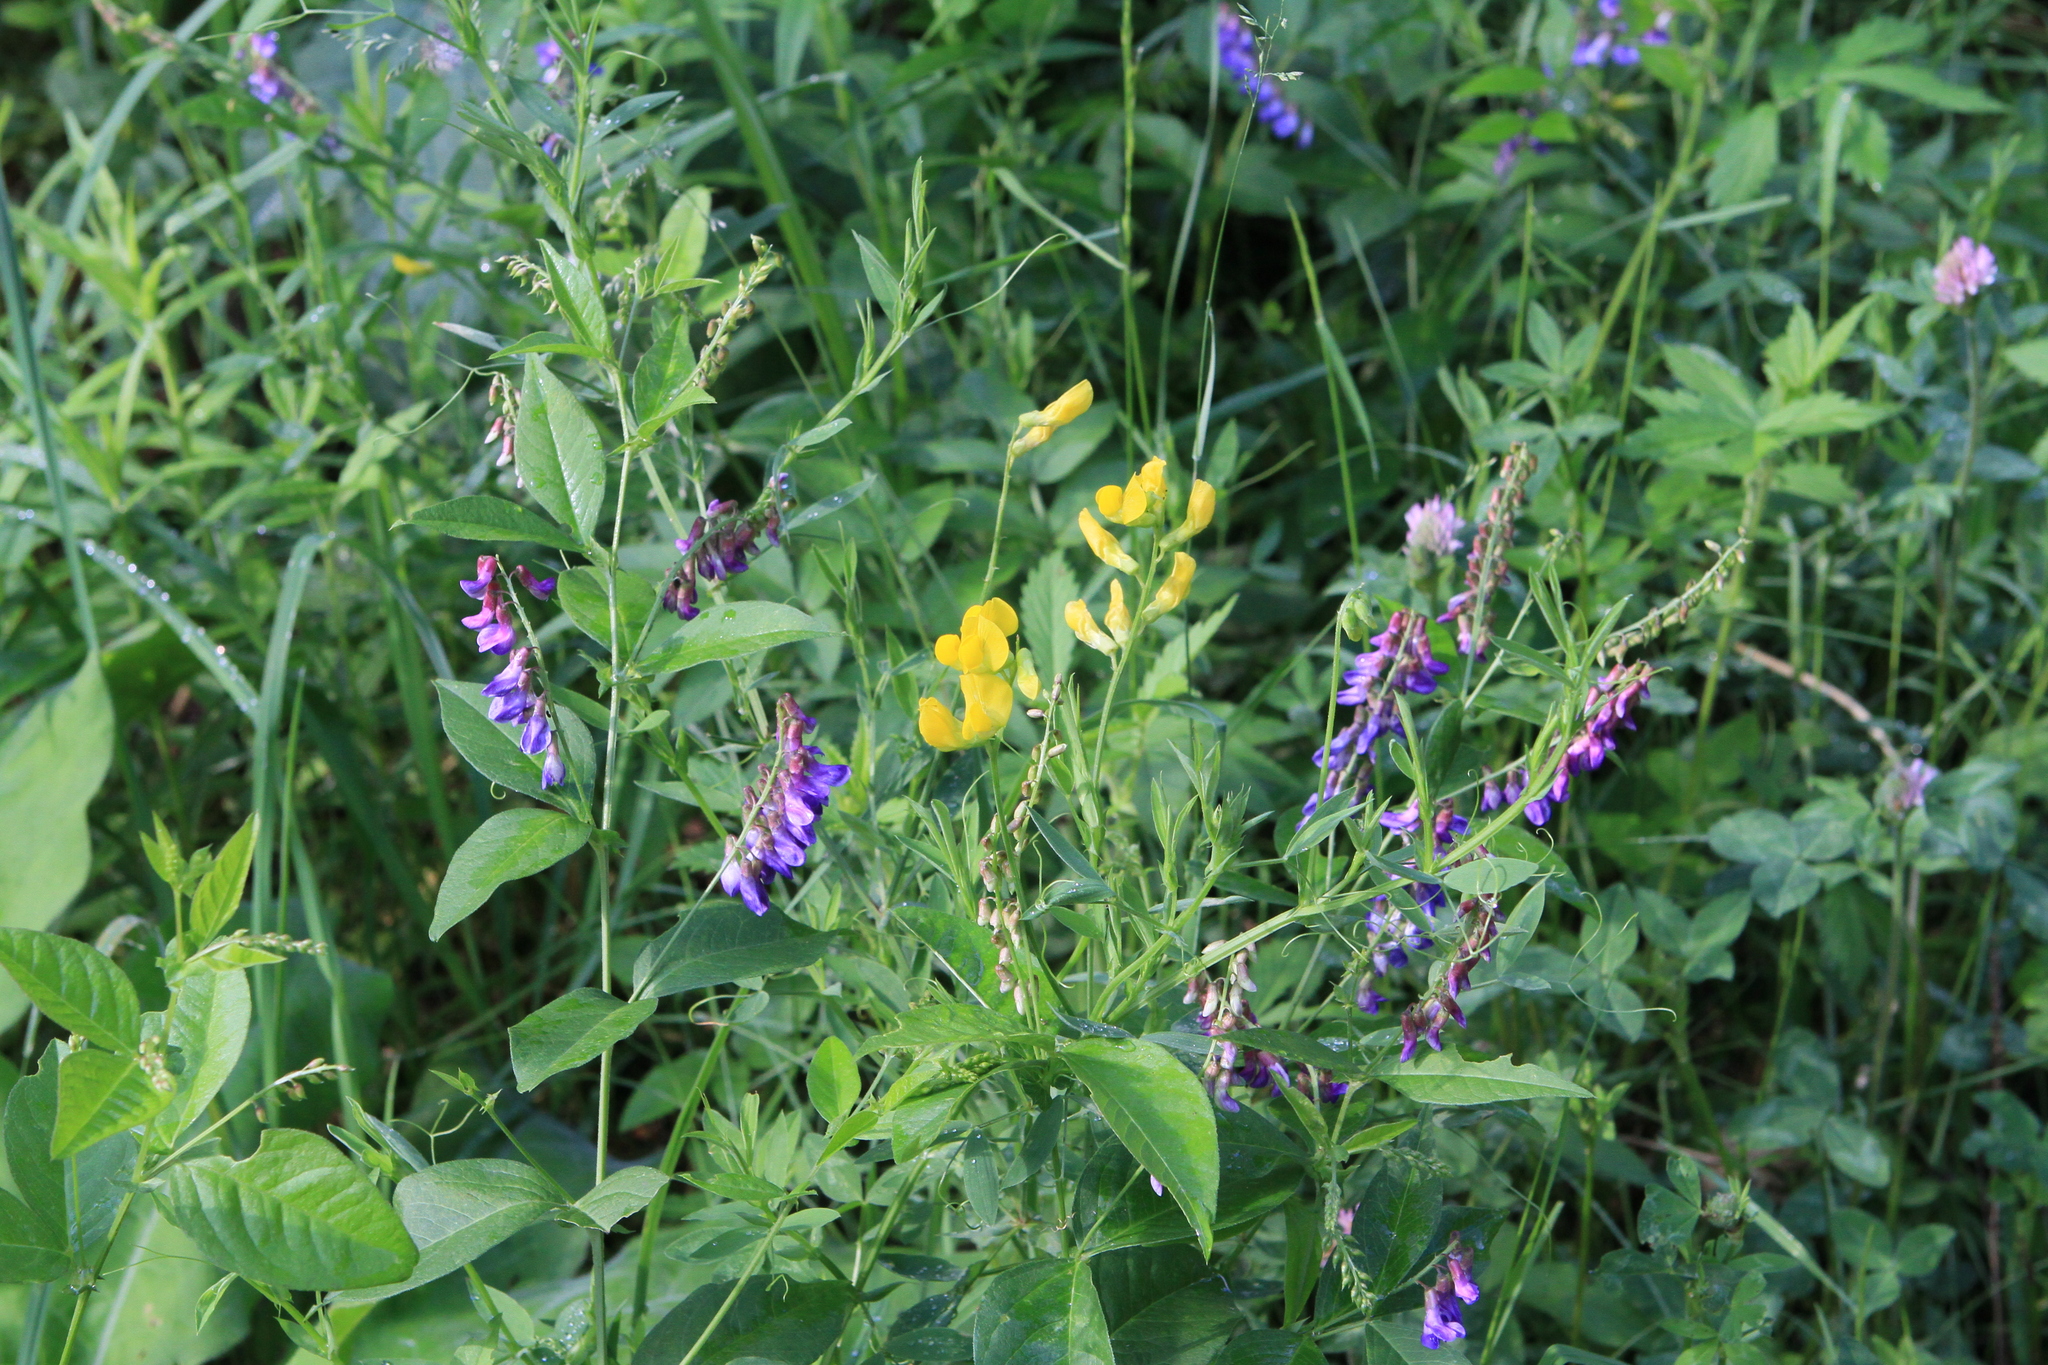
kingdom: Plantae
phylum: Tracheophyta
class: Magnoliopsida
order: Fabales
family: Fabaceae
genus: Lathyrus
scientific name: Lathyrus pratensis
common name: Meadow vetchling
